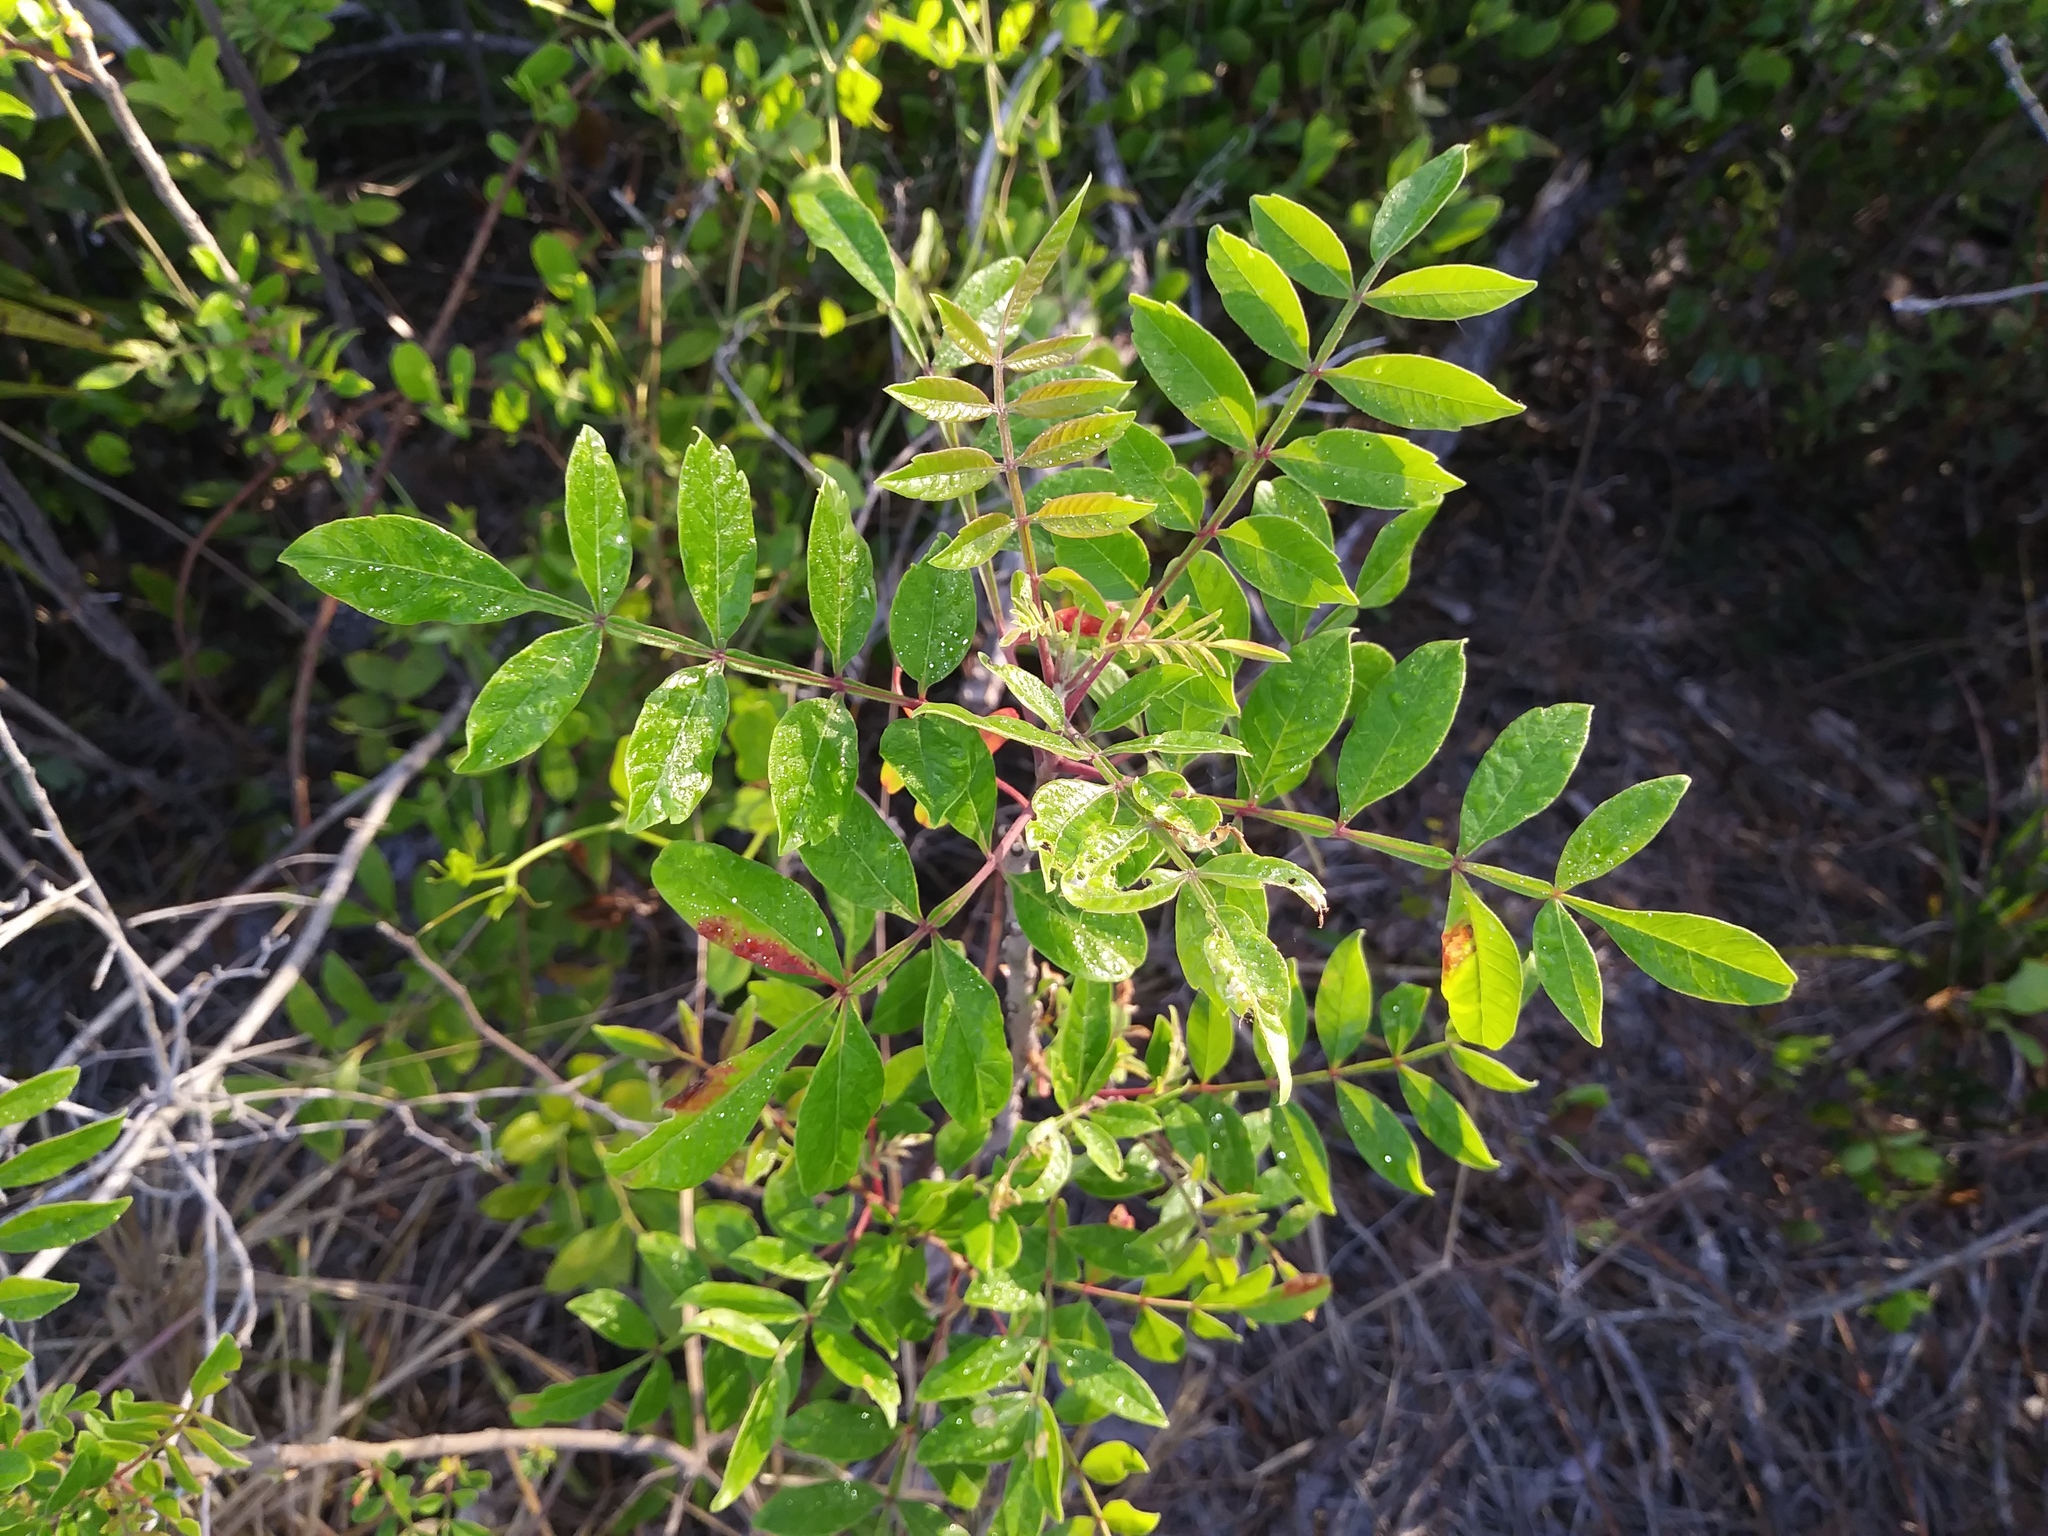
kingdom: Plantae
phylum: Tracheophyta
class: Magnoliopsida
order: Sapindales
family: Anacardiaceae
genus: Rhus
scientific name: Rhus copallina
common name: Shining sumac
